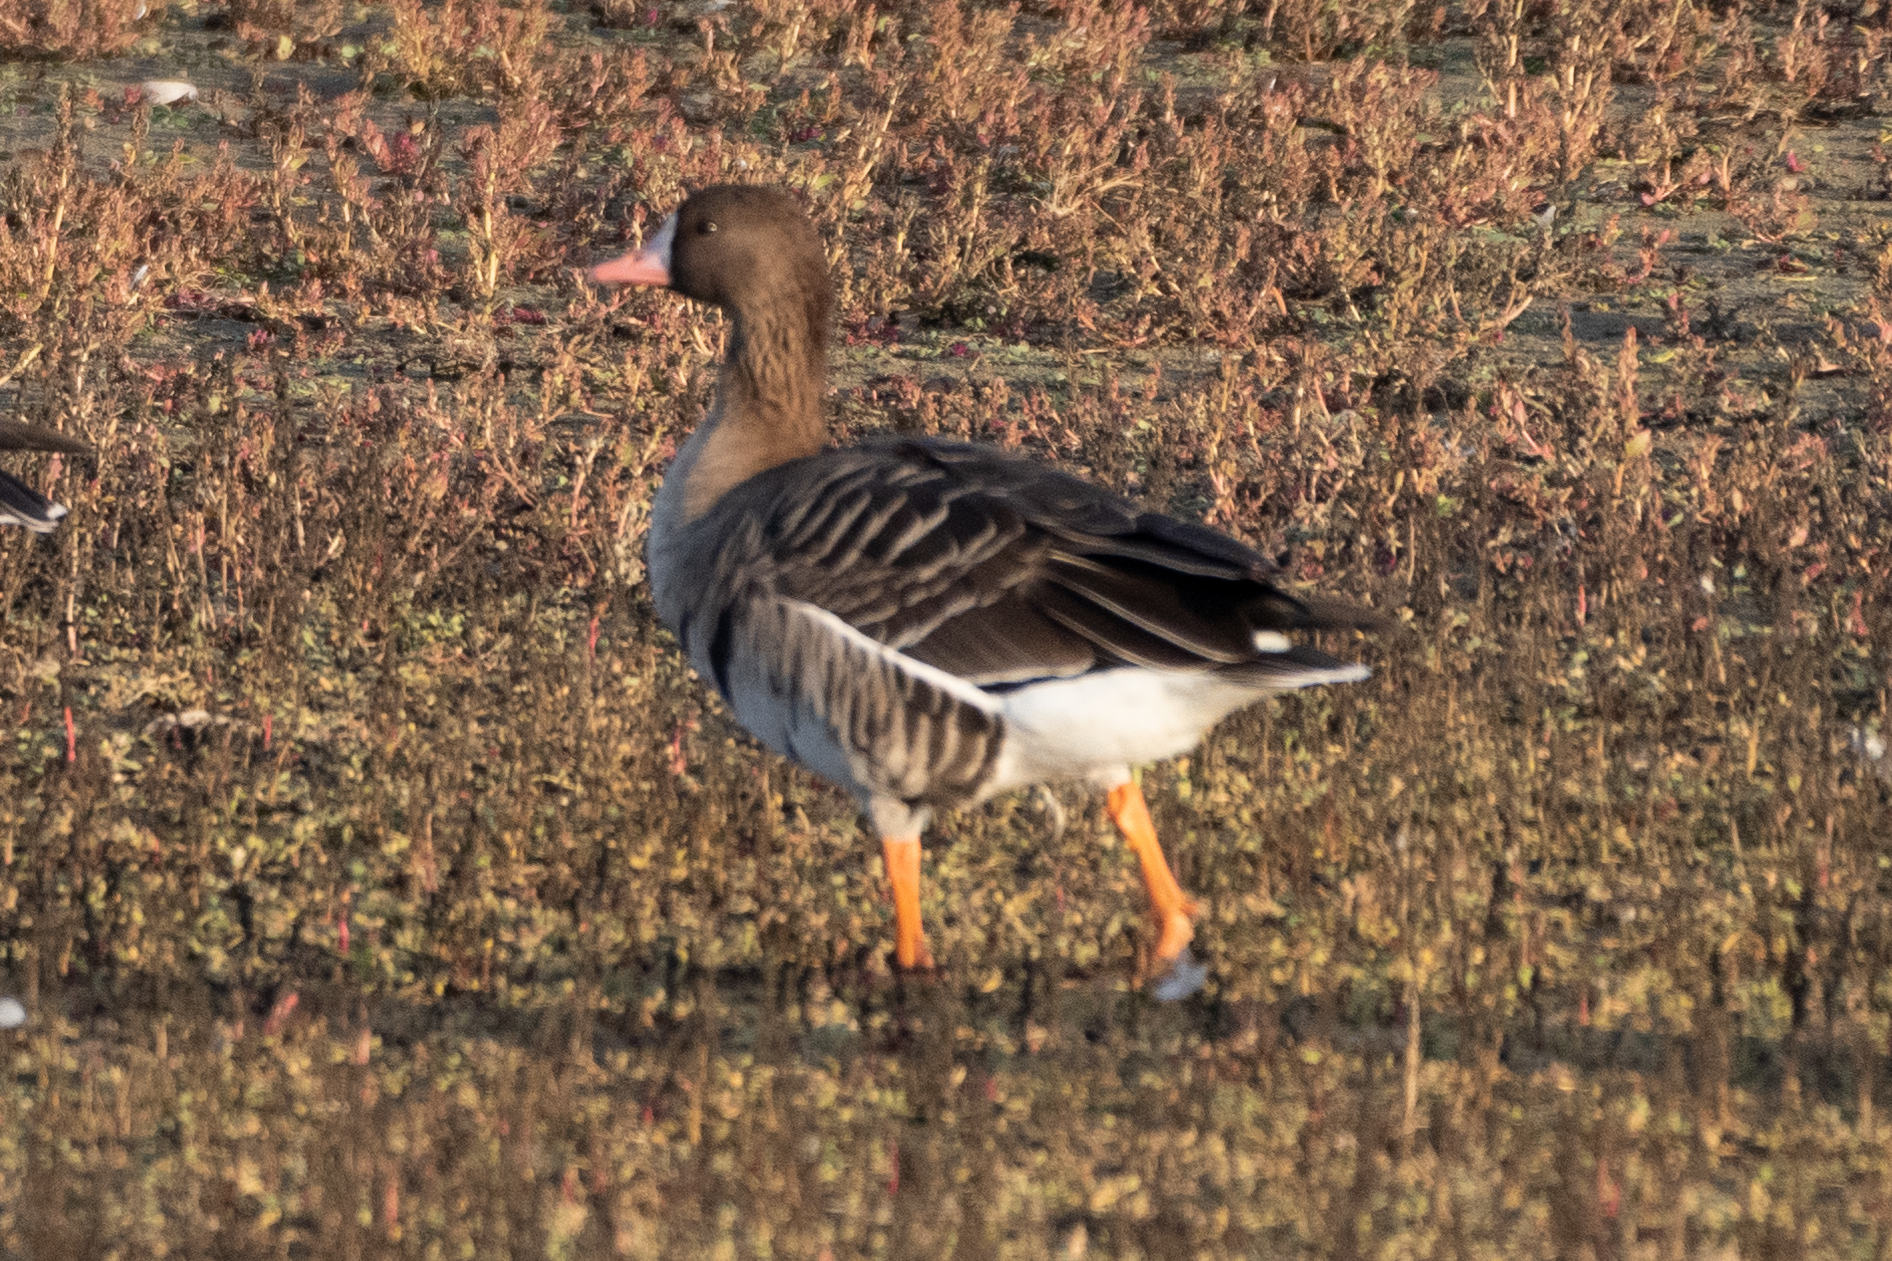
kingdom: Animalia
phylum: Chordata
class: Aves
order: Anseriformes
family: Anatidae
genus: Anser
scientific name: Anser albifrons
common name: Greater white-fronted goose
